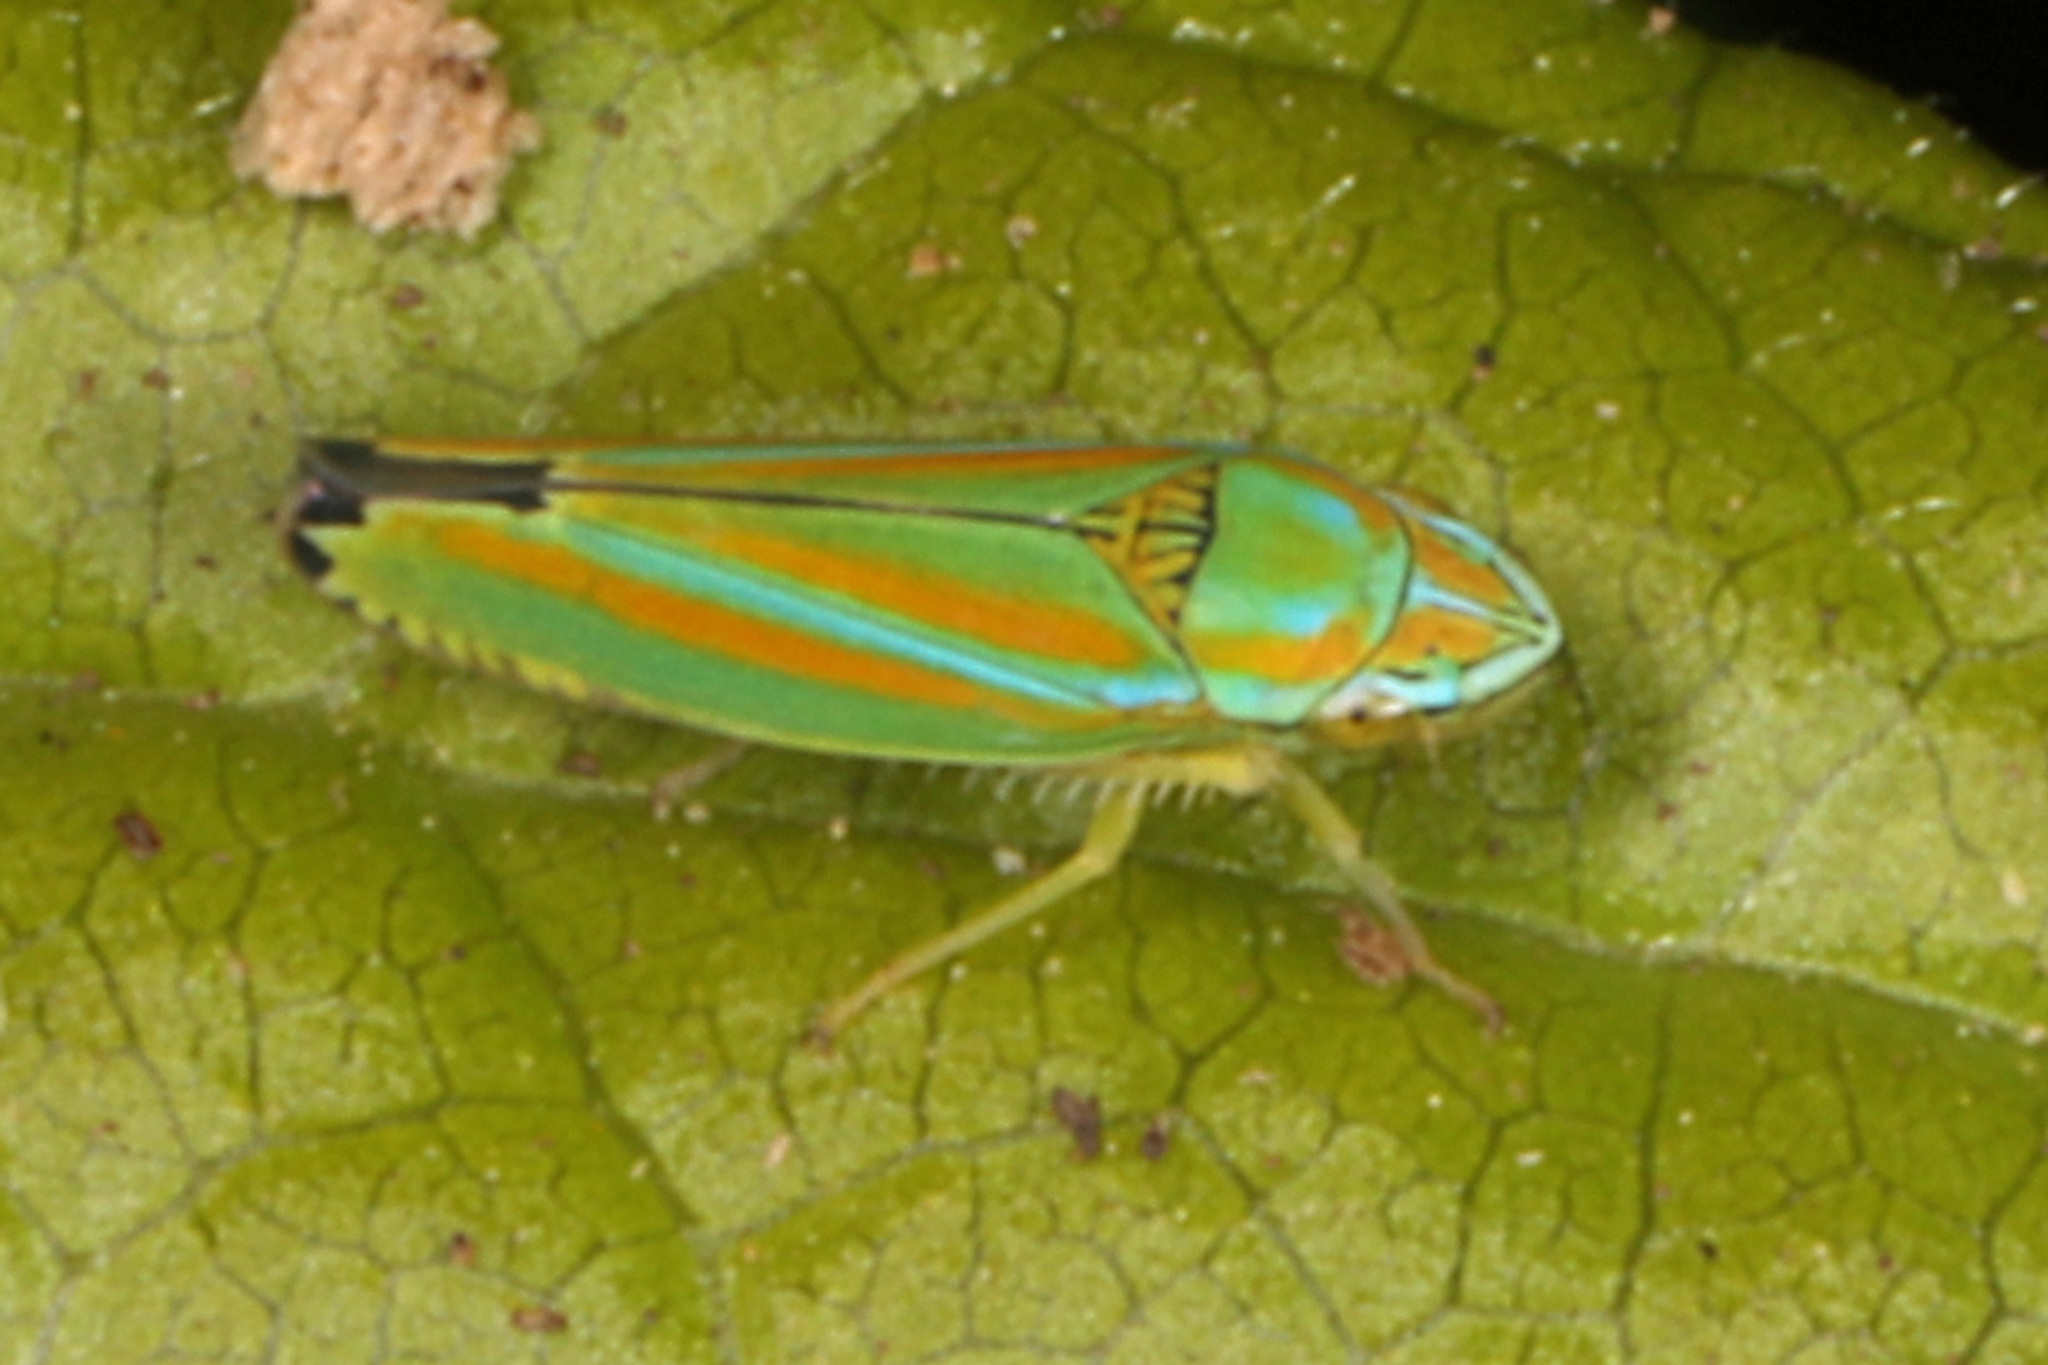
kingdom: Animalia
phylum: Arthropoda
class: Insecta
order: Hemiptera
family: Cicadellidae
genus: Graphocephala
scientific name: Graphocephala versuta
